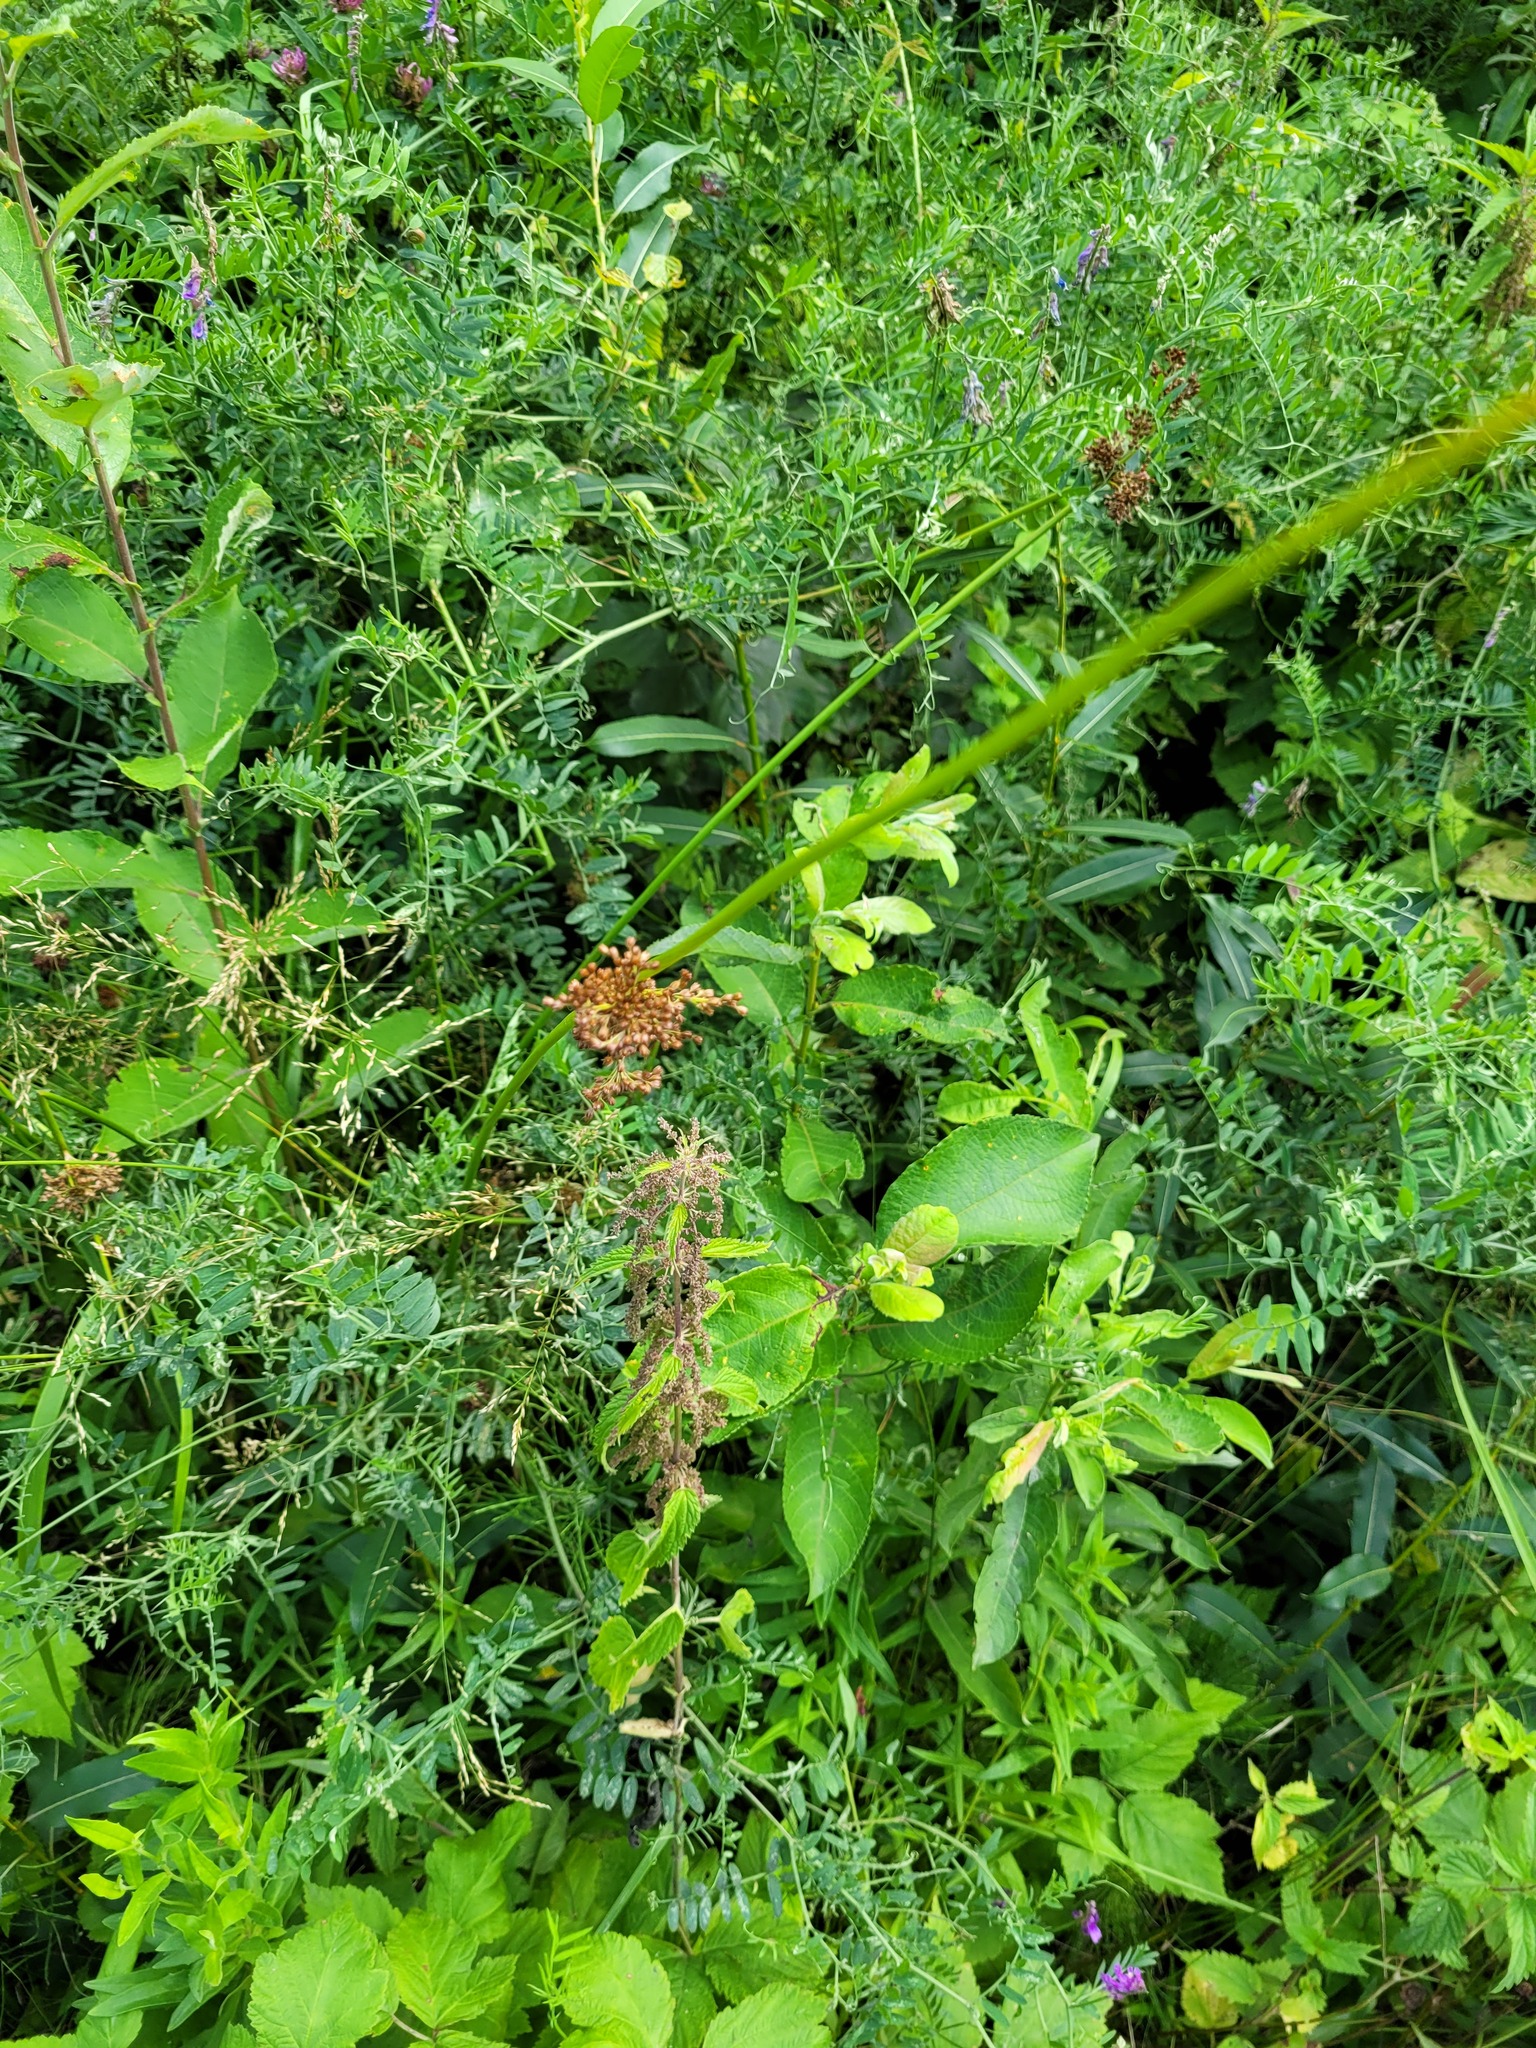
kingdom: Plantae
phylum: Tracheophyta
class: Magnoliopsida
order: Malpighiales
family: Salicaceae
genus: Salix
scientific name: Salix caprea
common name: Goat willow
